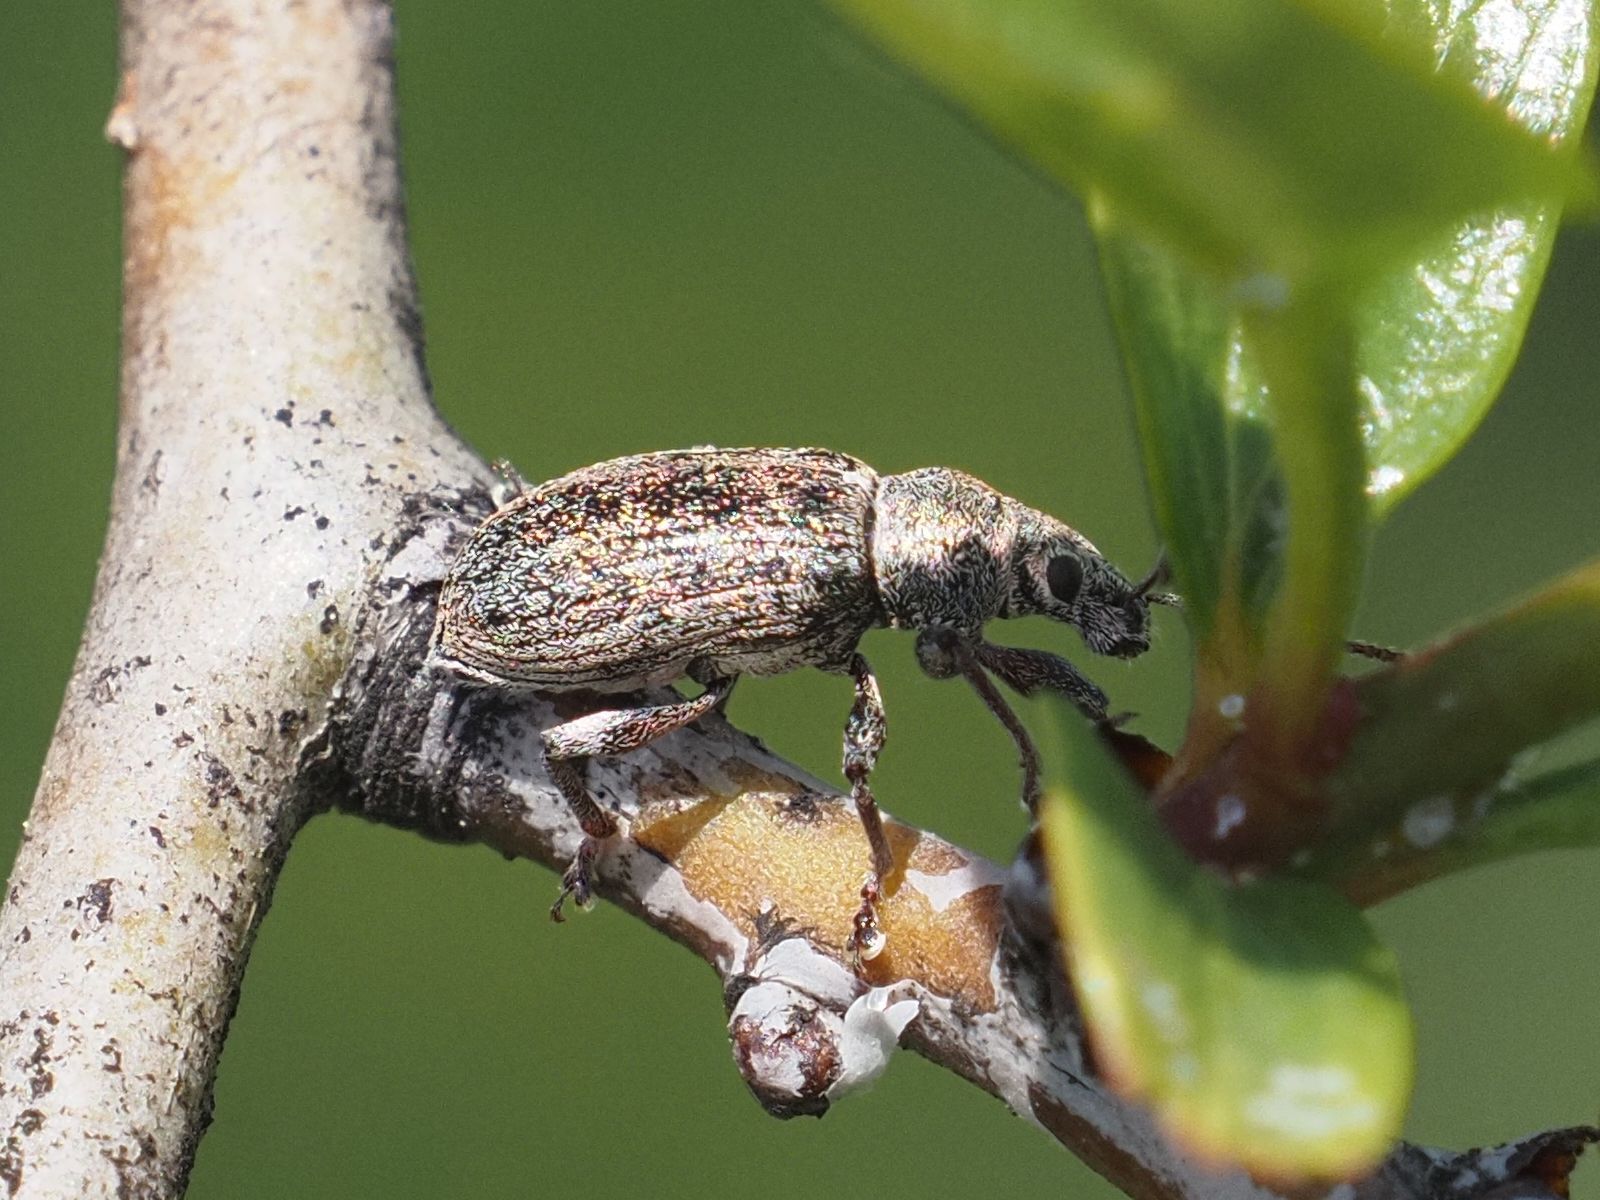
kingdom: Animalia
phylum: Arthropoda
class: Insecta
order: Coleoptera
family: Curculionidae
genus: Phyllobius
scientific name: Phyllobius pyri
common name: Common leaf weevil
